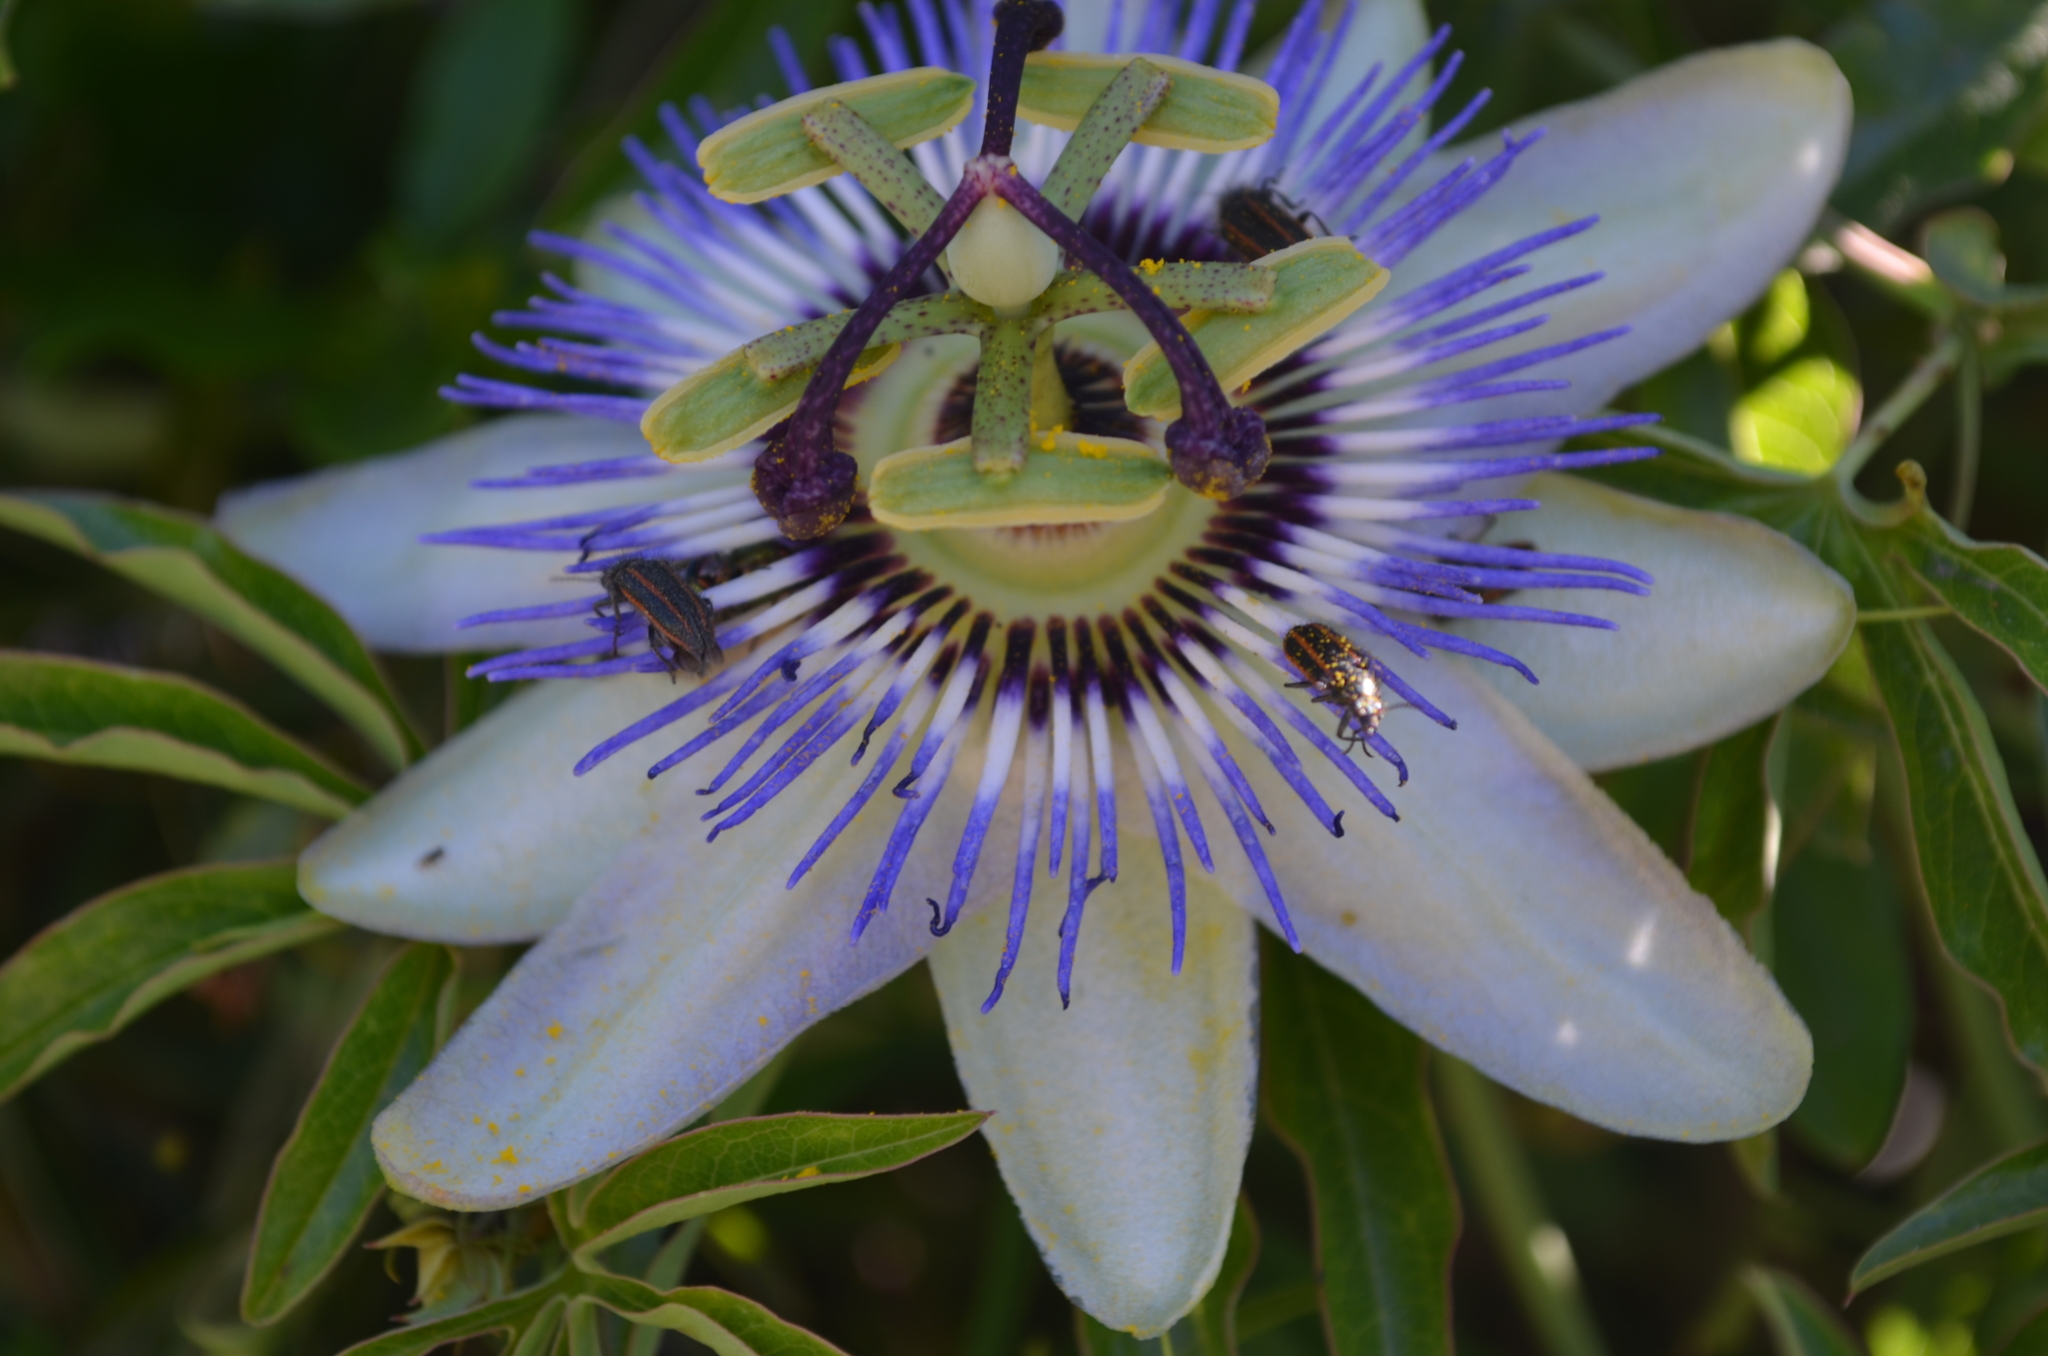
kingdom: Animalia
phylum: Arthropoda
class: Insecta
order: Coleoptera
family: Melyridae
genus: Astylus
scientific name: Astylus
